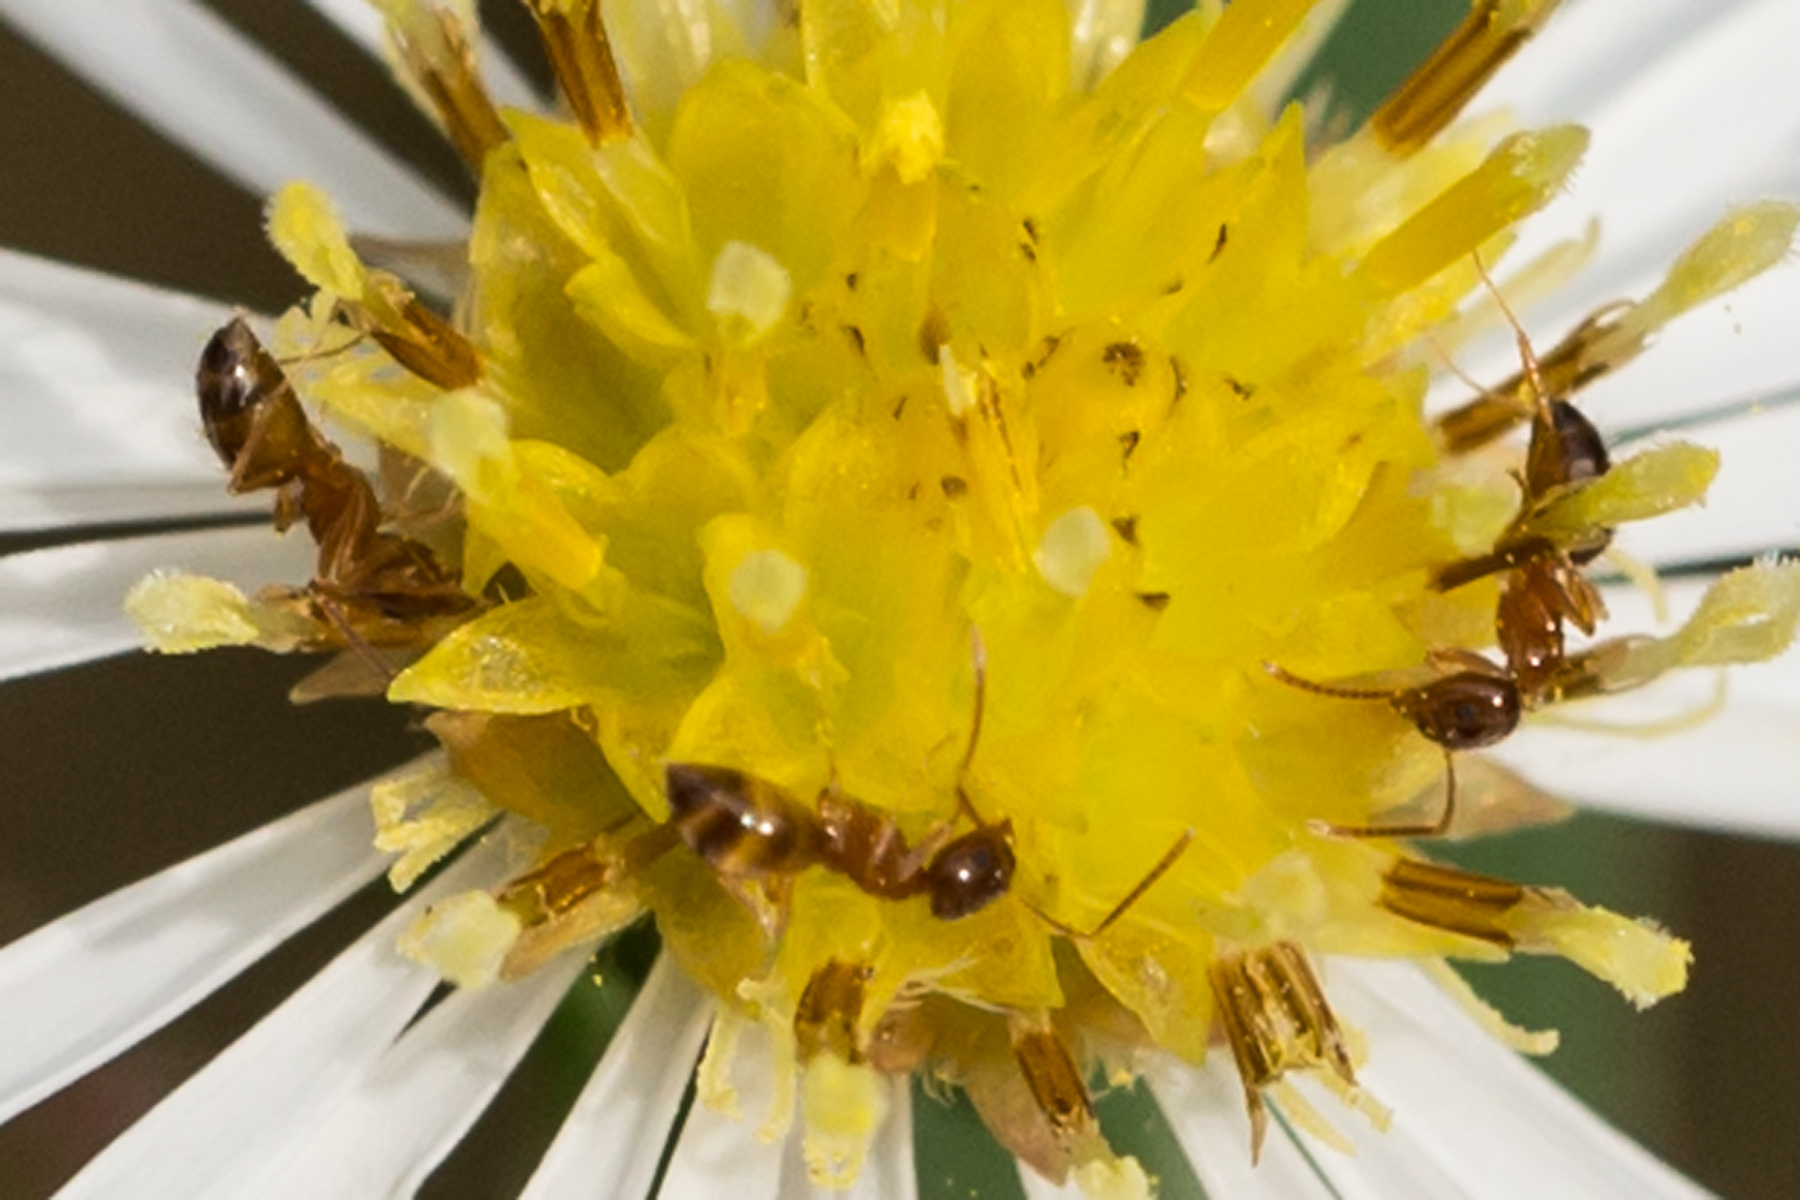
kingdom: Animalia
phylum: Arthropoda
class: Insecta
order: Hymenoptera
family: Formicidae
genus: Paratrechina
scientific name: Paratrechina flavipes
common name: Eastern asian formicine ant
